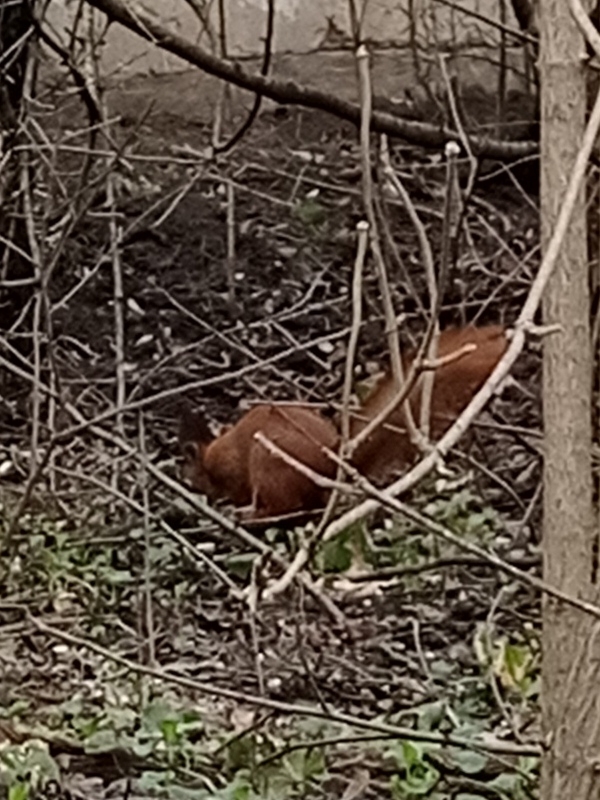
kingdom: Animalia
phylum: Chordata
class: Mammalia
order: Rodentia
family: Sciuridae
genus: Sciurus
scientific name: Sciurus vulgaris
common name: Eurasian red squirrel
